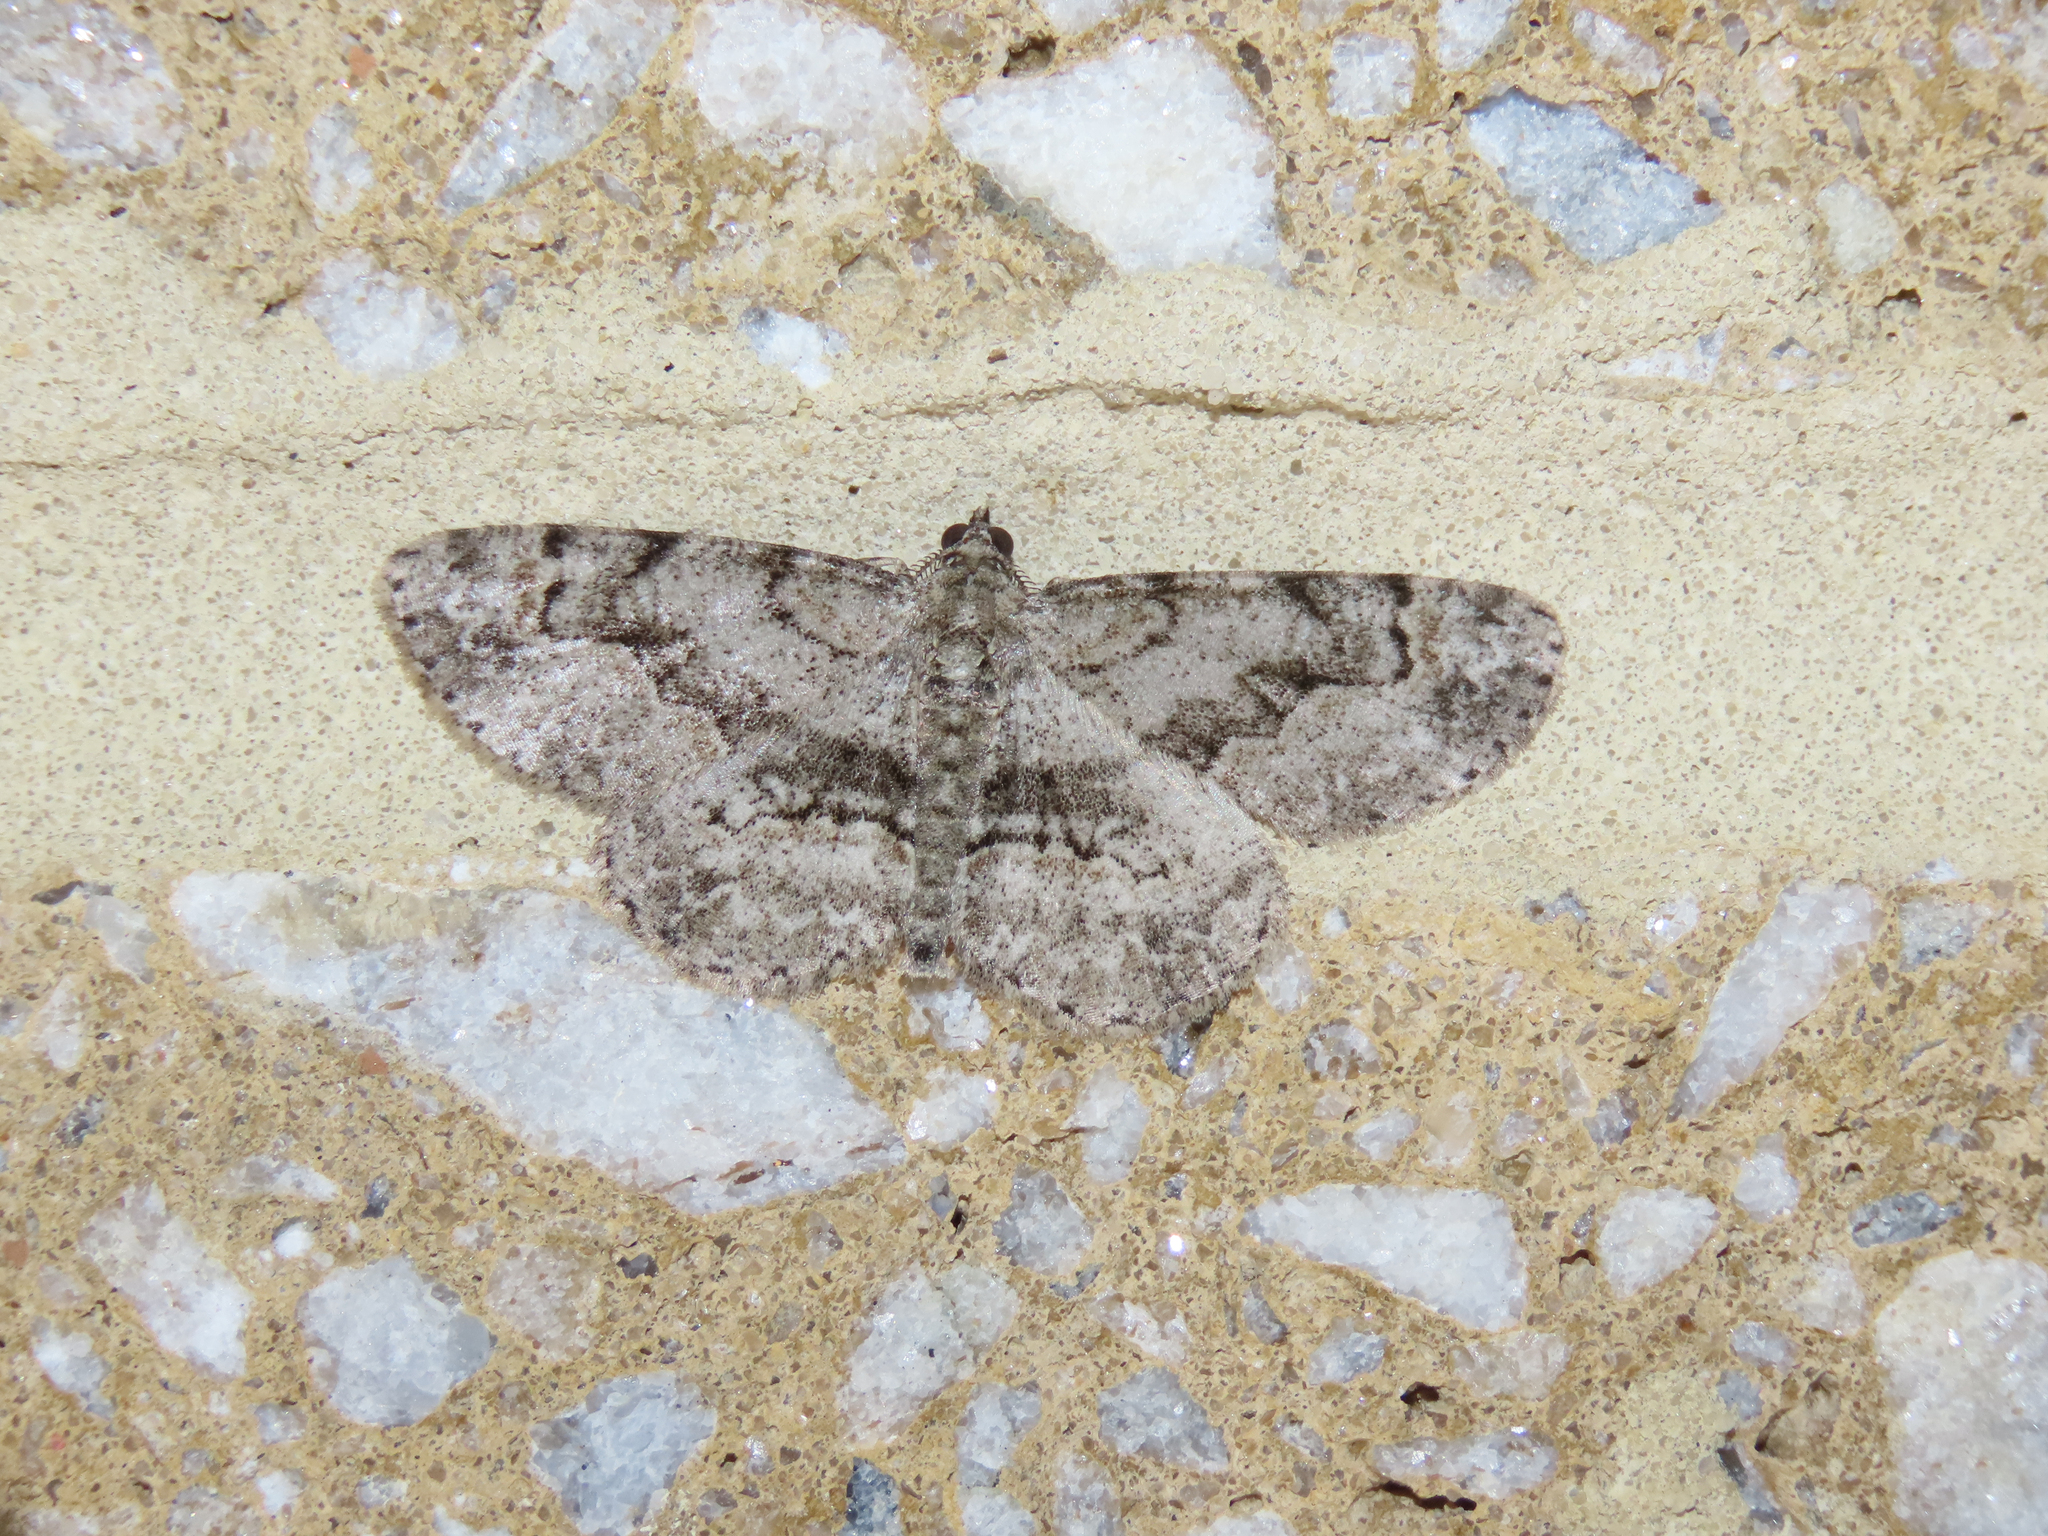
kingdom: Animalia
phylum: Arthropoda
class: Insecta
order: Lepidoptera
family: Geometridae
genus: Iridopsis
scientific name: Iridopsis ephyraria
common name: Pale-winged gray
